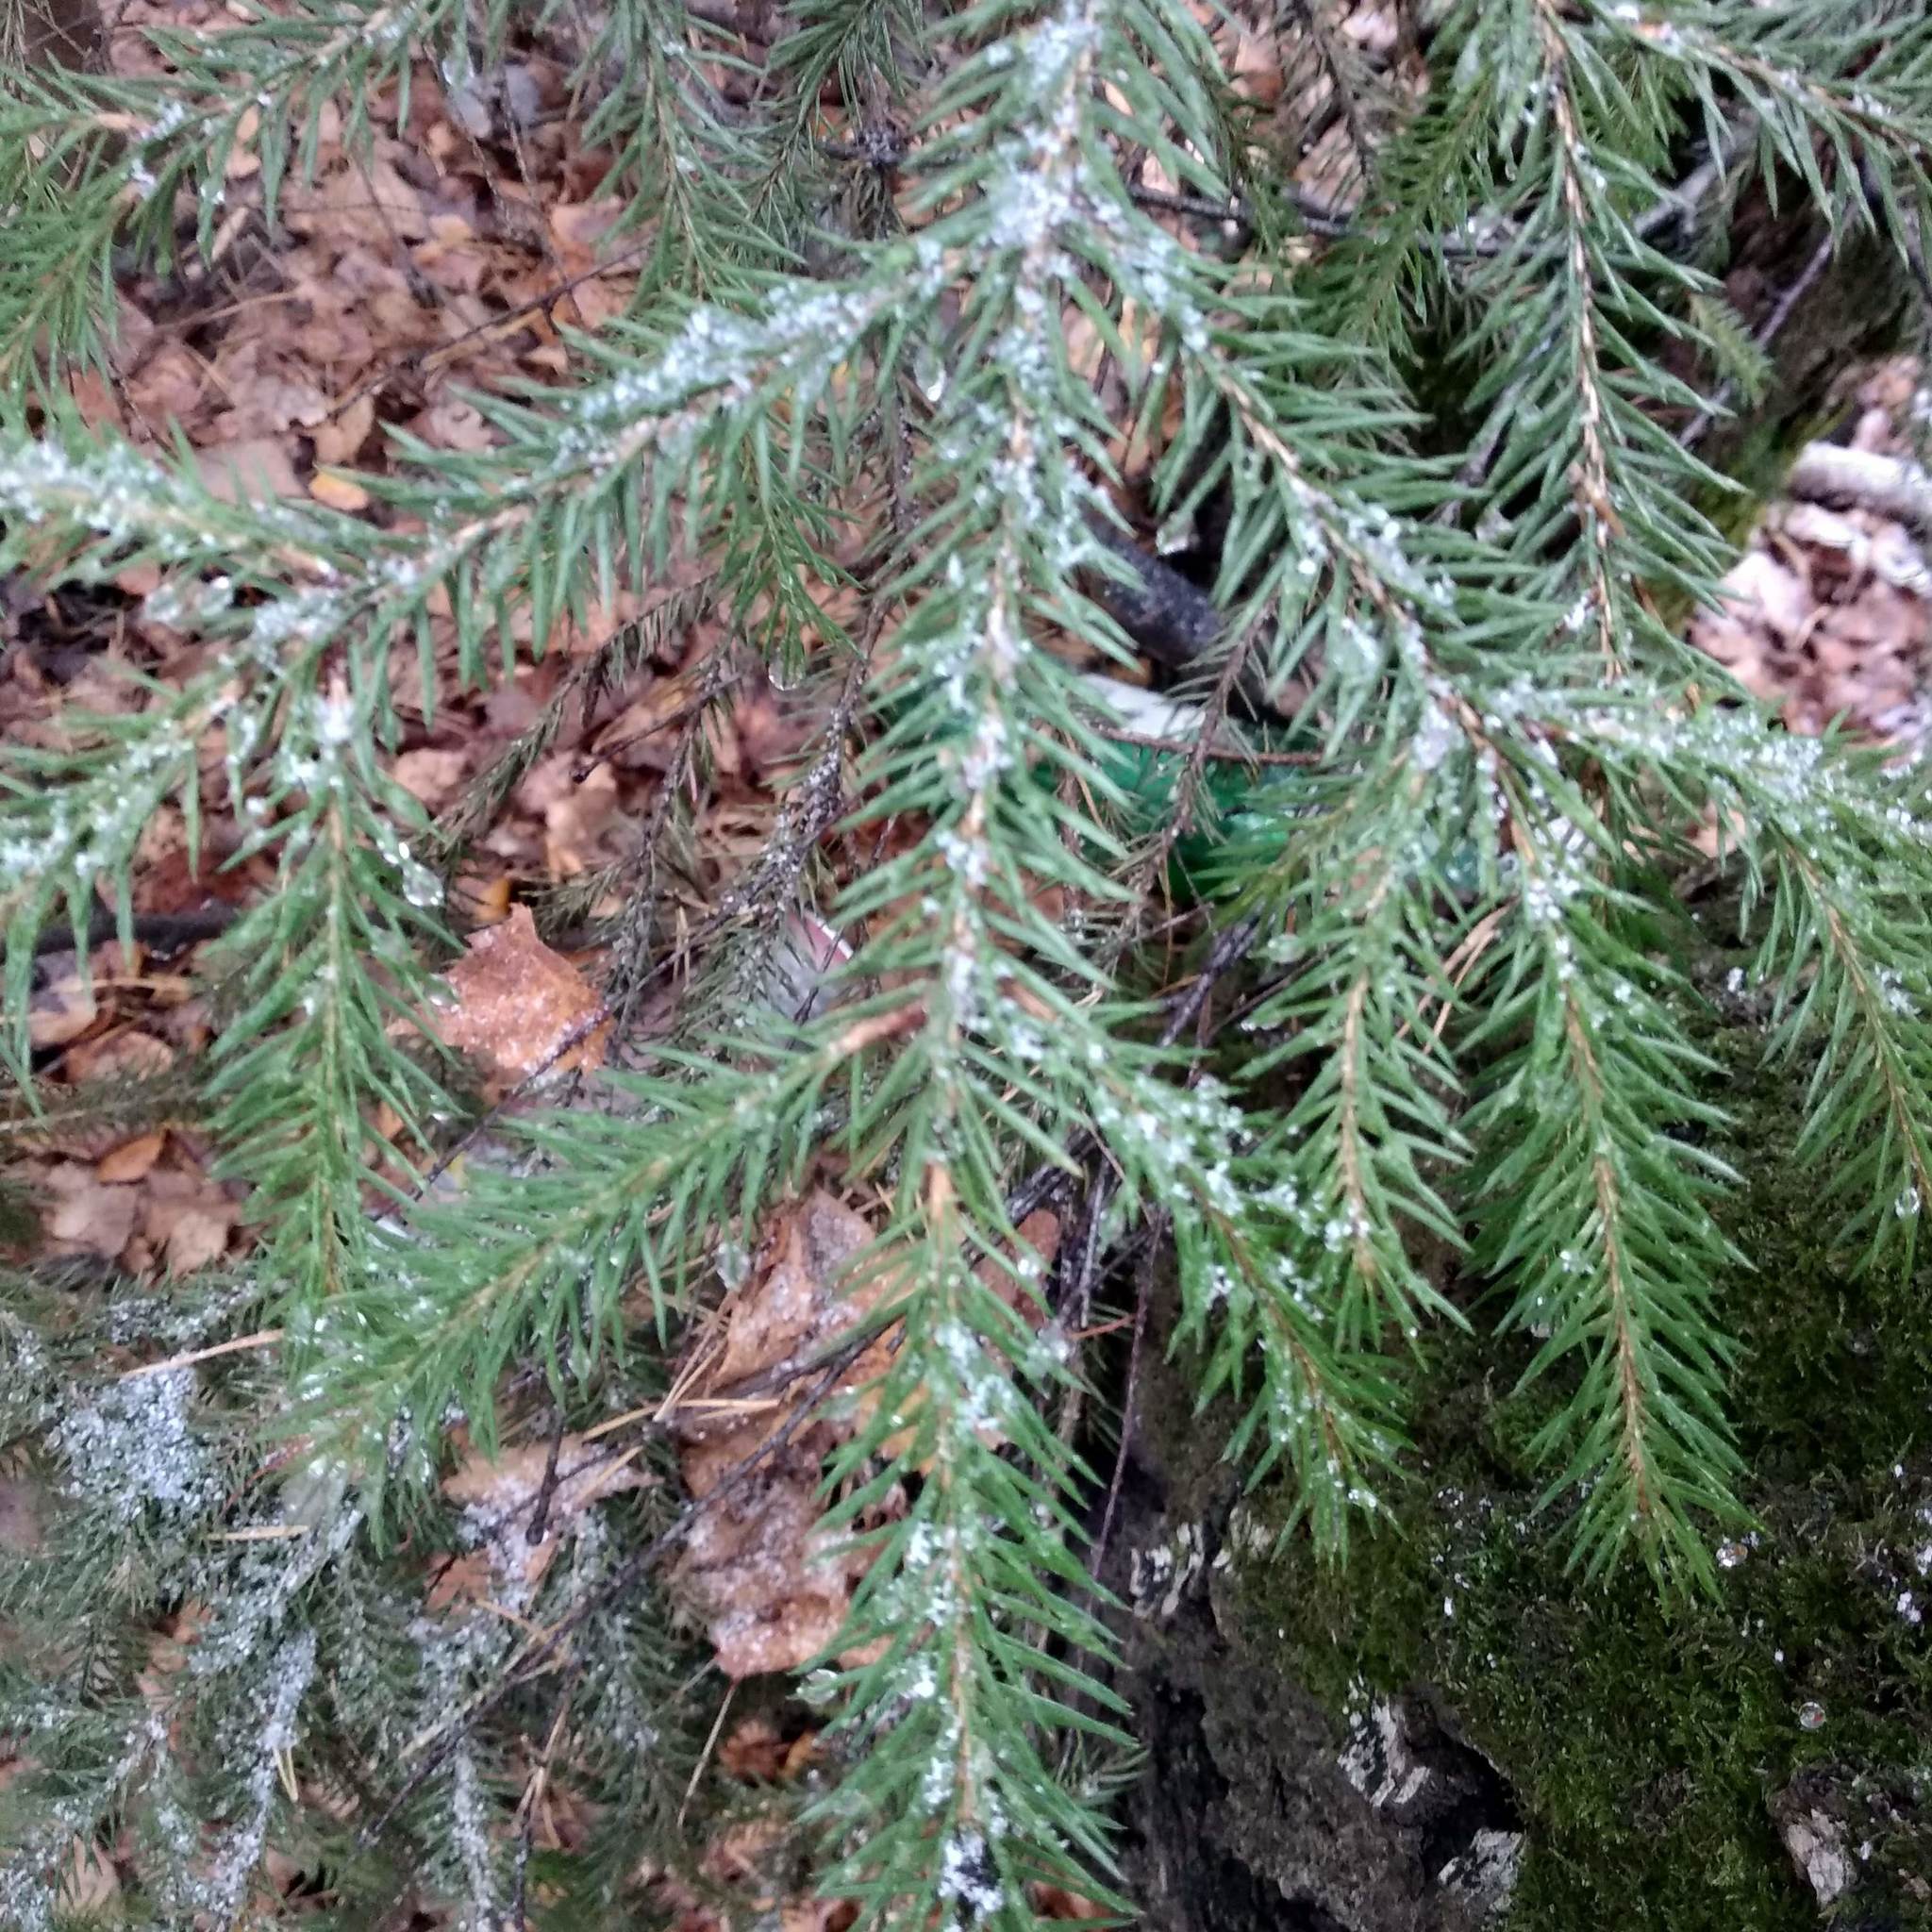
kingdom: Plantae
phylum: Tracheophyta
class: Pinopsida
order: Pinales
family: Pinaceae
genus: Picea
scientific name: Picea abies
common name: Norway spruce
